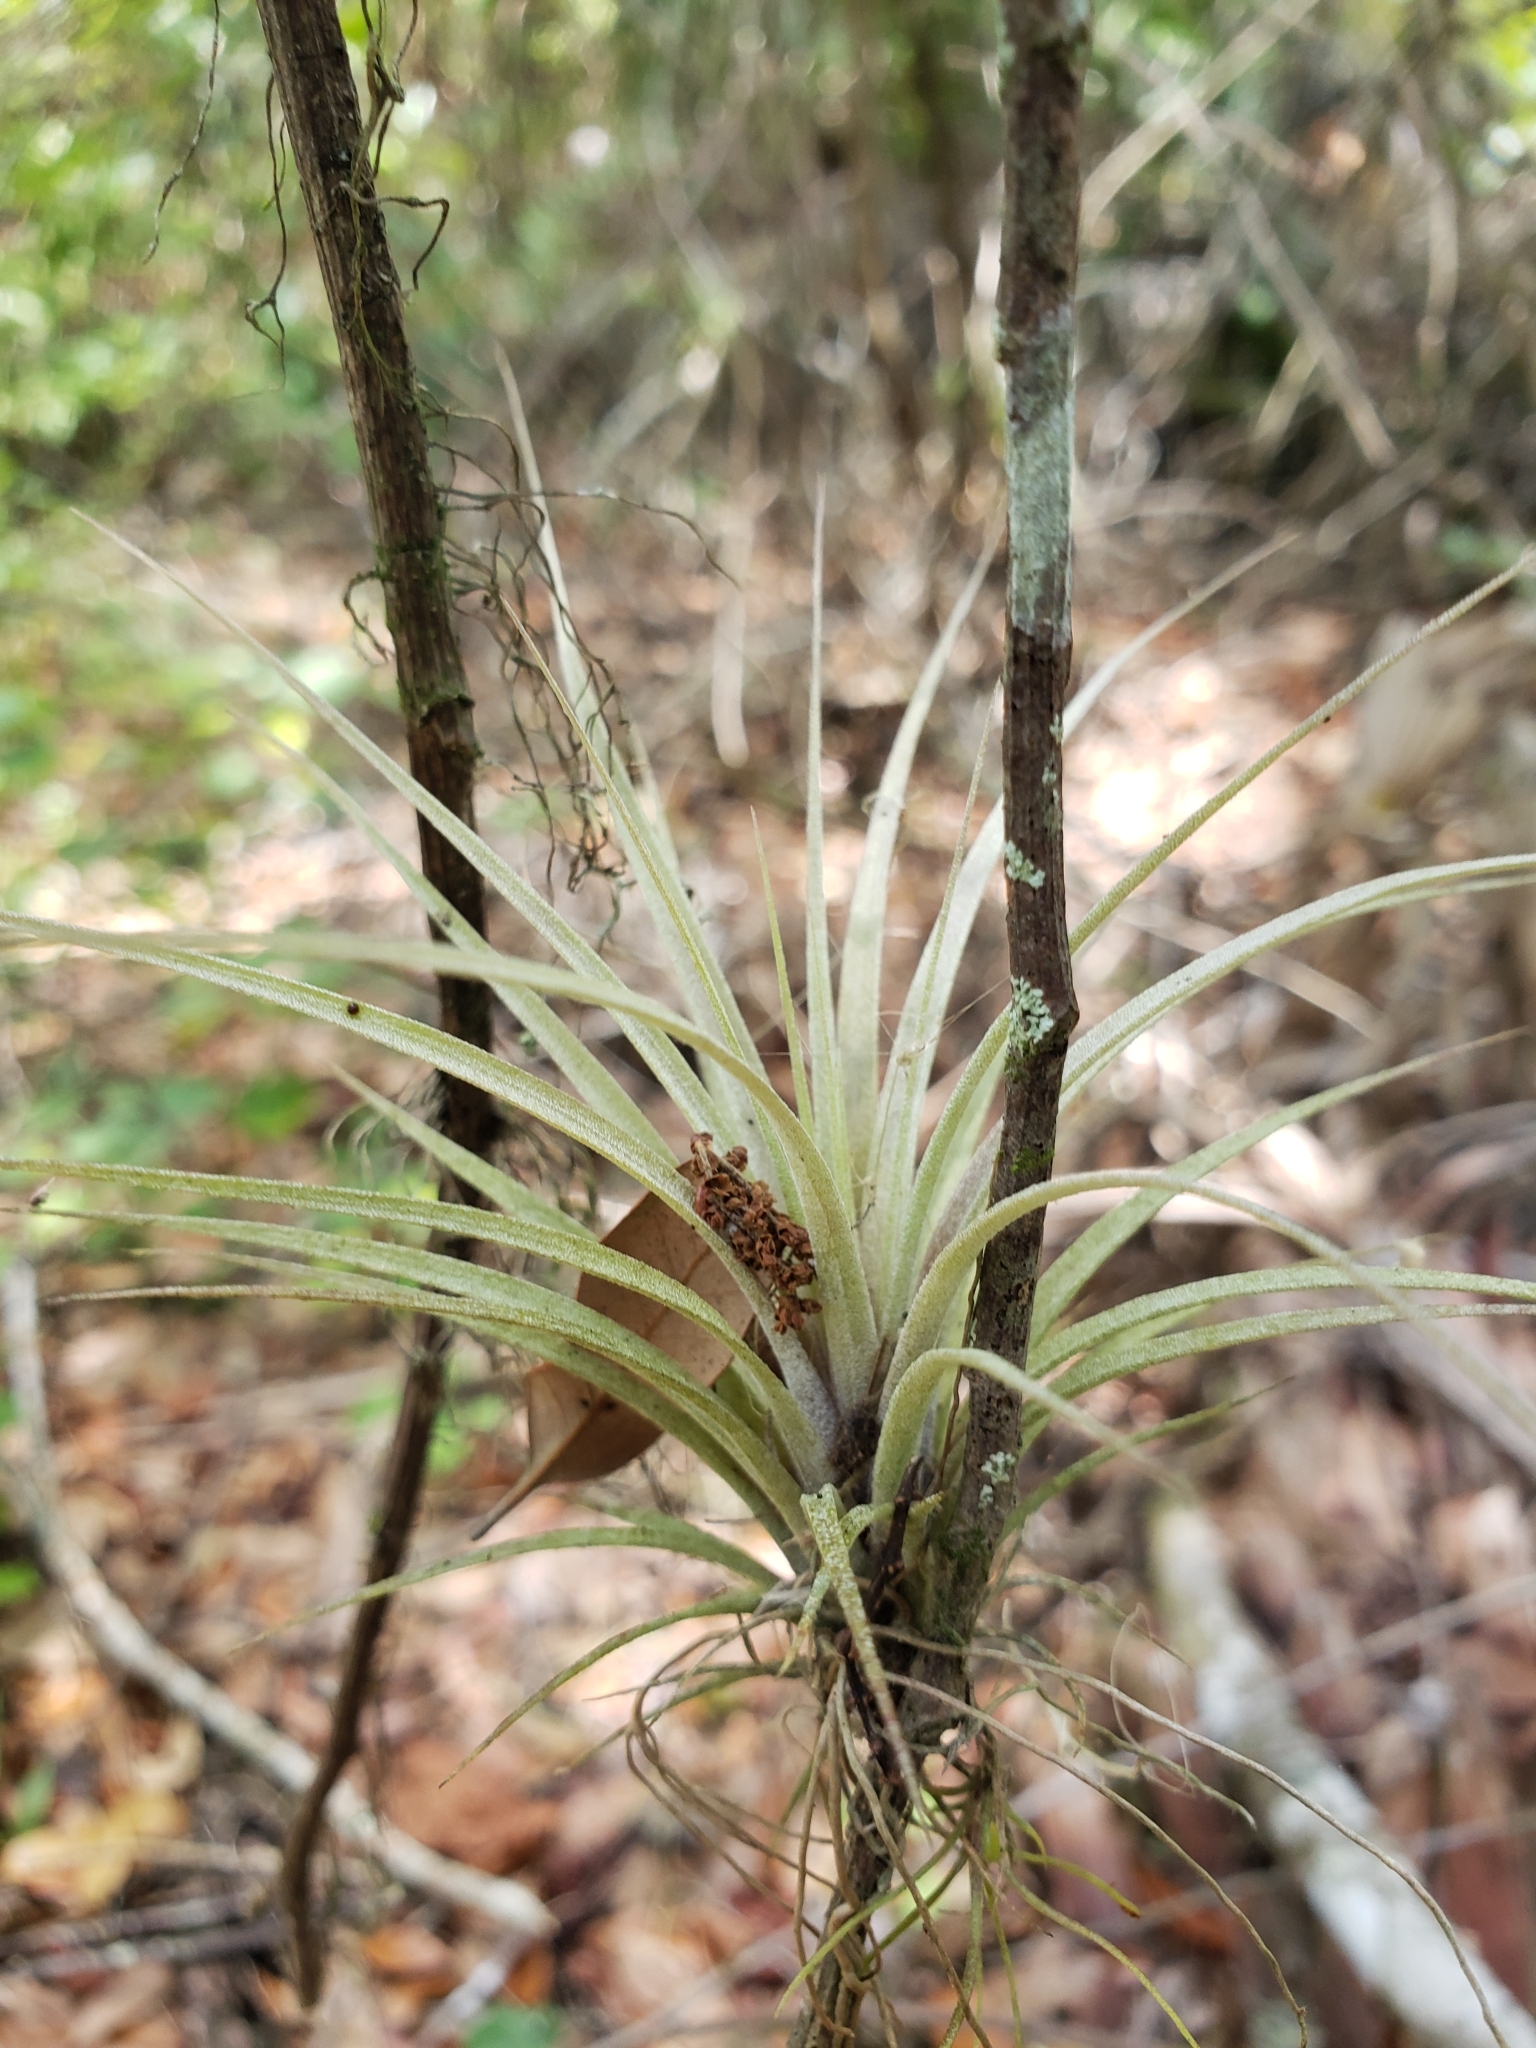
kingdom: Plantae
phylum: Tracheophyta
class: Liliopsida
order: Poales
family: Bromeliaceae
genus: Tillandsia
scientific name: Tillandsia fasciculata
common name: Giant airplant
